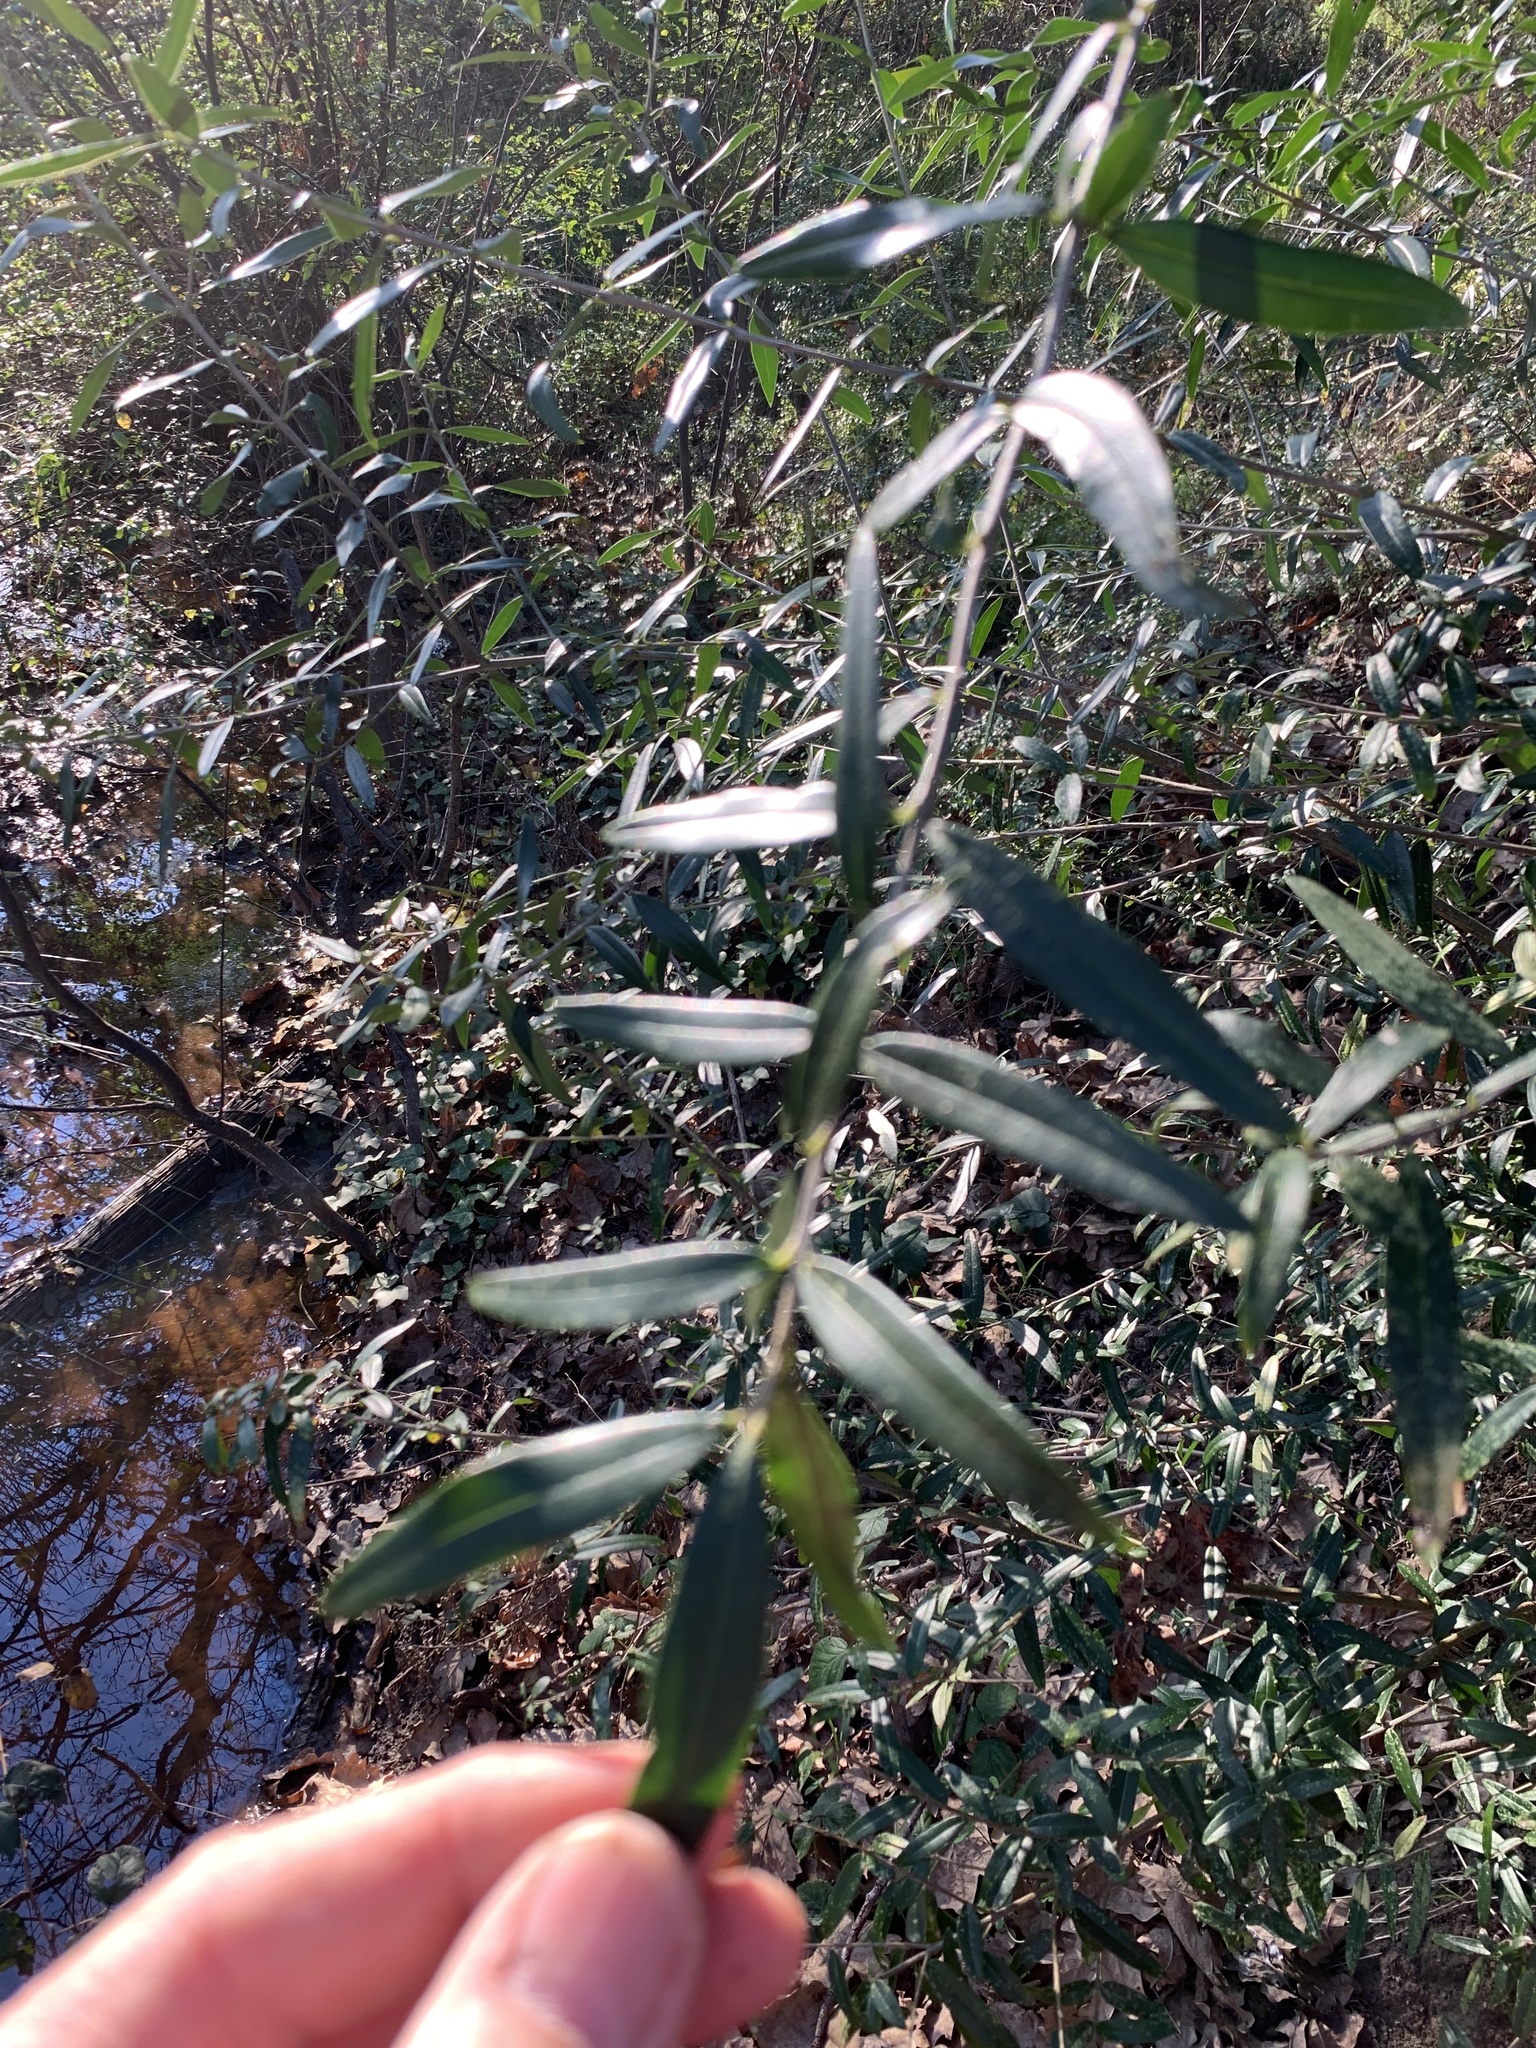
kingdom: Plantae
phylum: Tracheophyta
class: Magnoliopsida
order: Lamiales
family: Oleaceae
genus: Olea
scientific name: Olea europaea
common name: Olive
